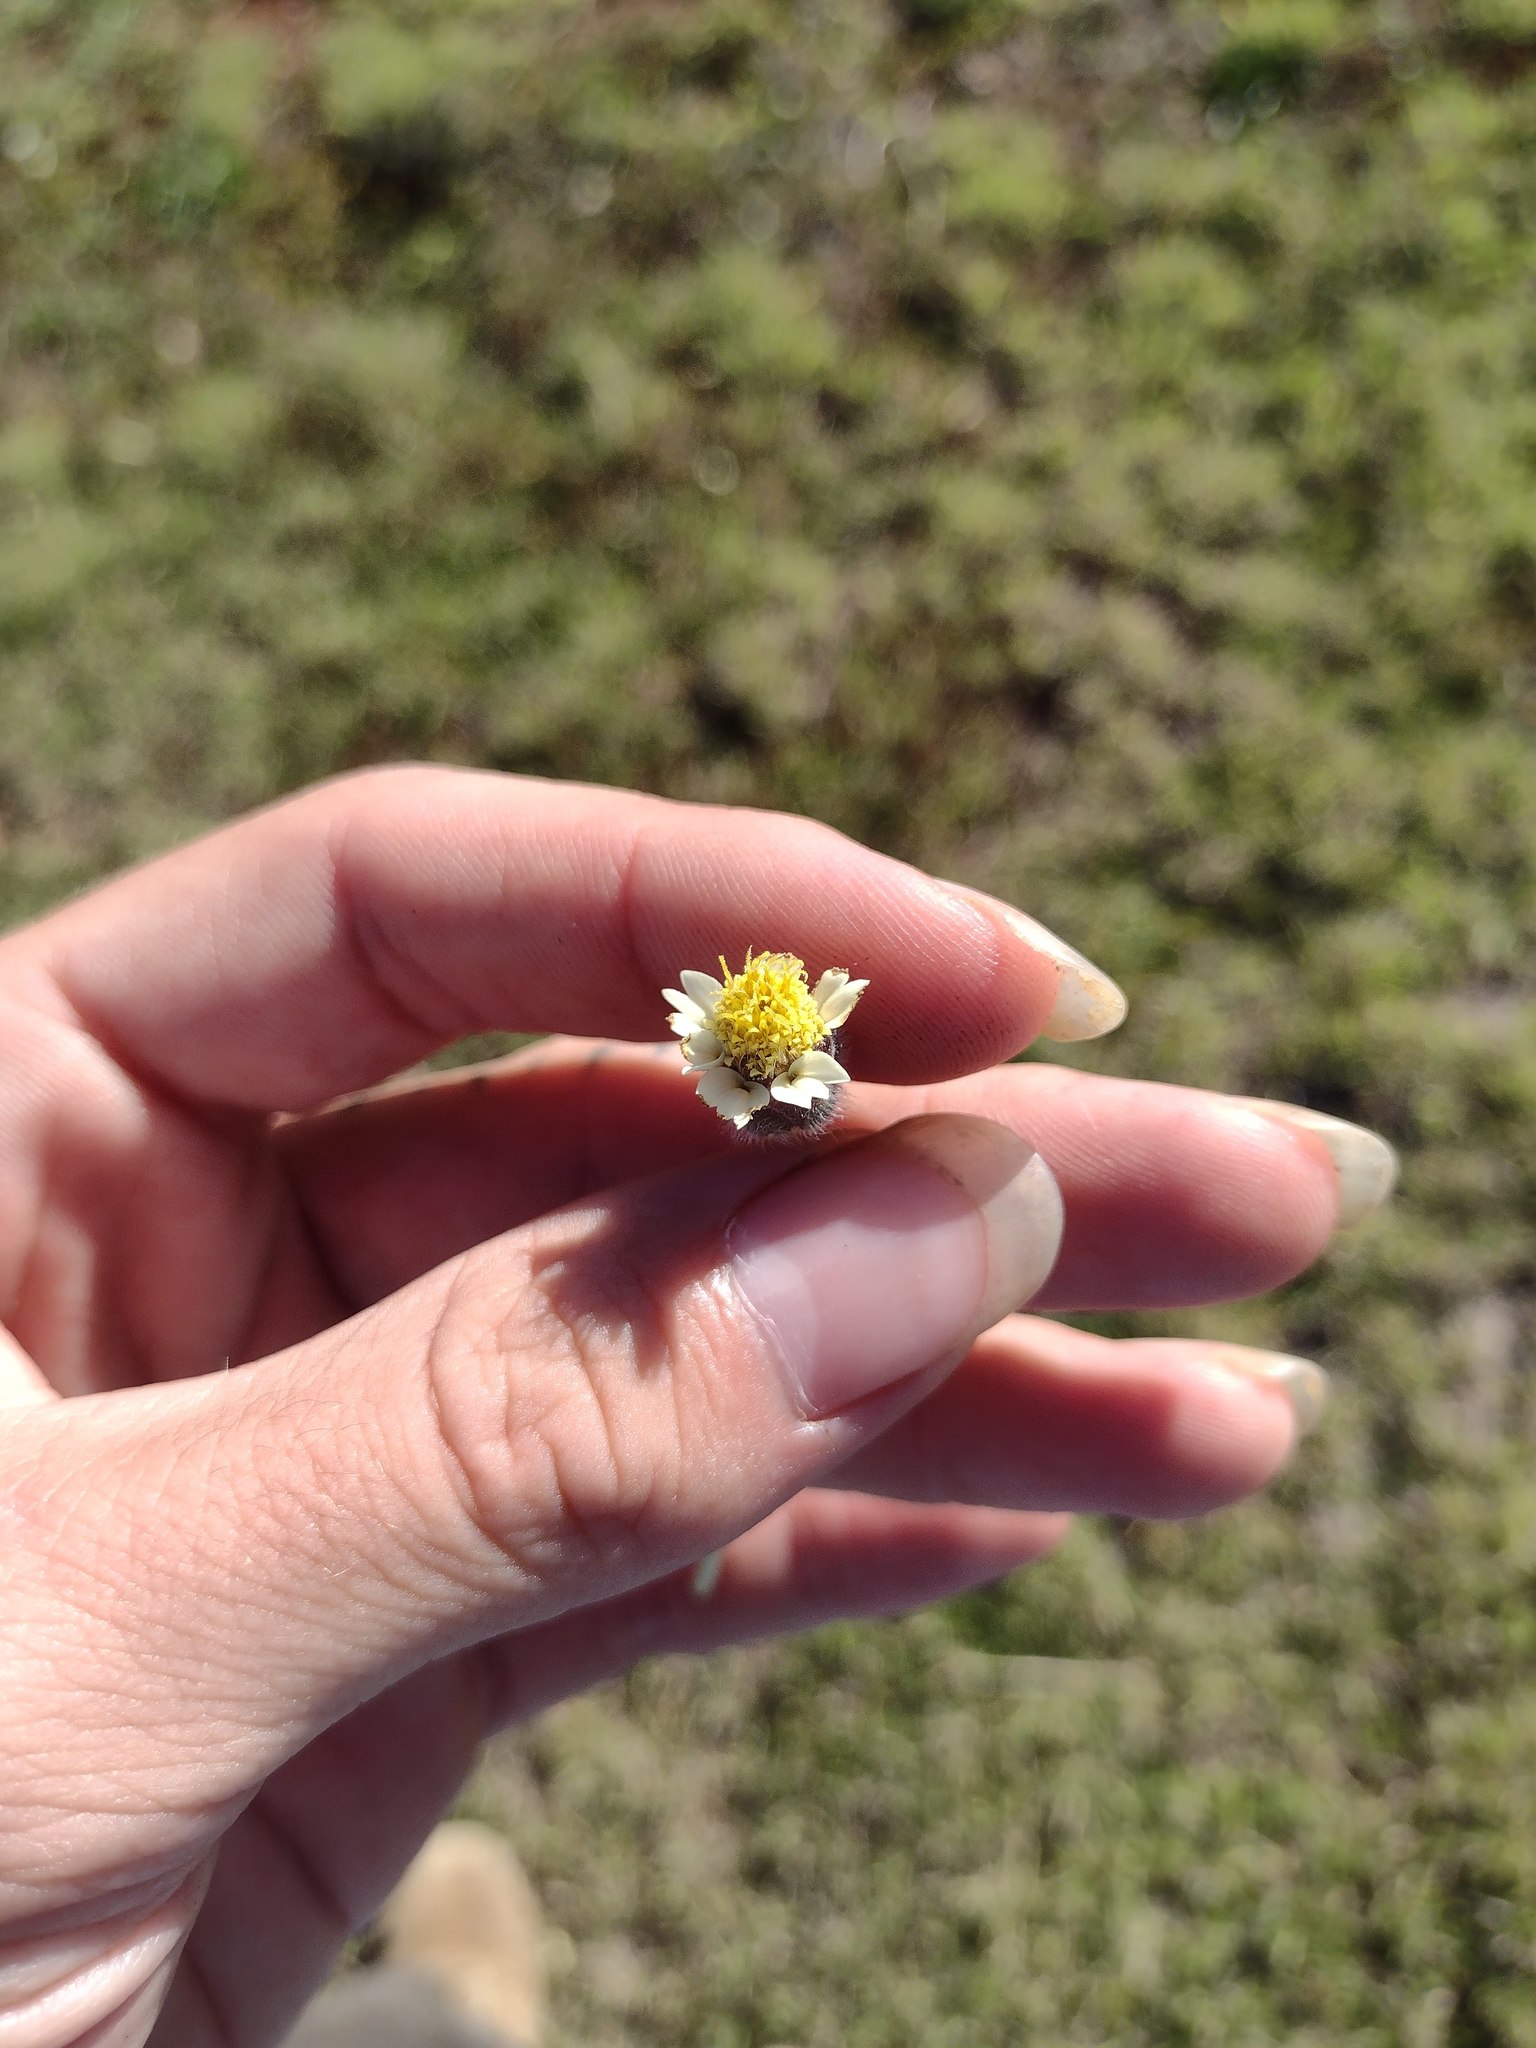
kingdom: Plantae
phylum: Tracheophyta
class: Magnoliopsida
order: Asterales
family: Asteraceae
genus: Tridax
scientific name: Tridax procumbens
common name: Coatbuttons
